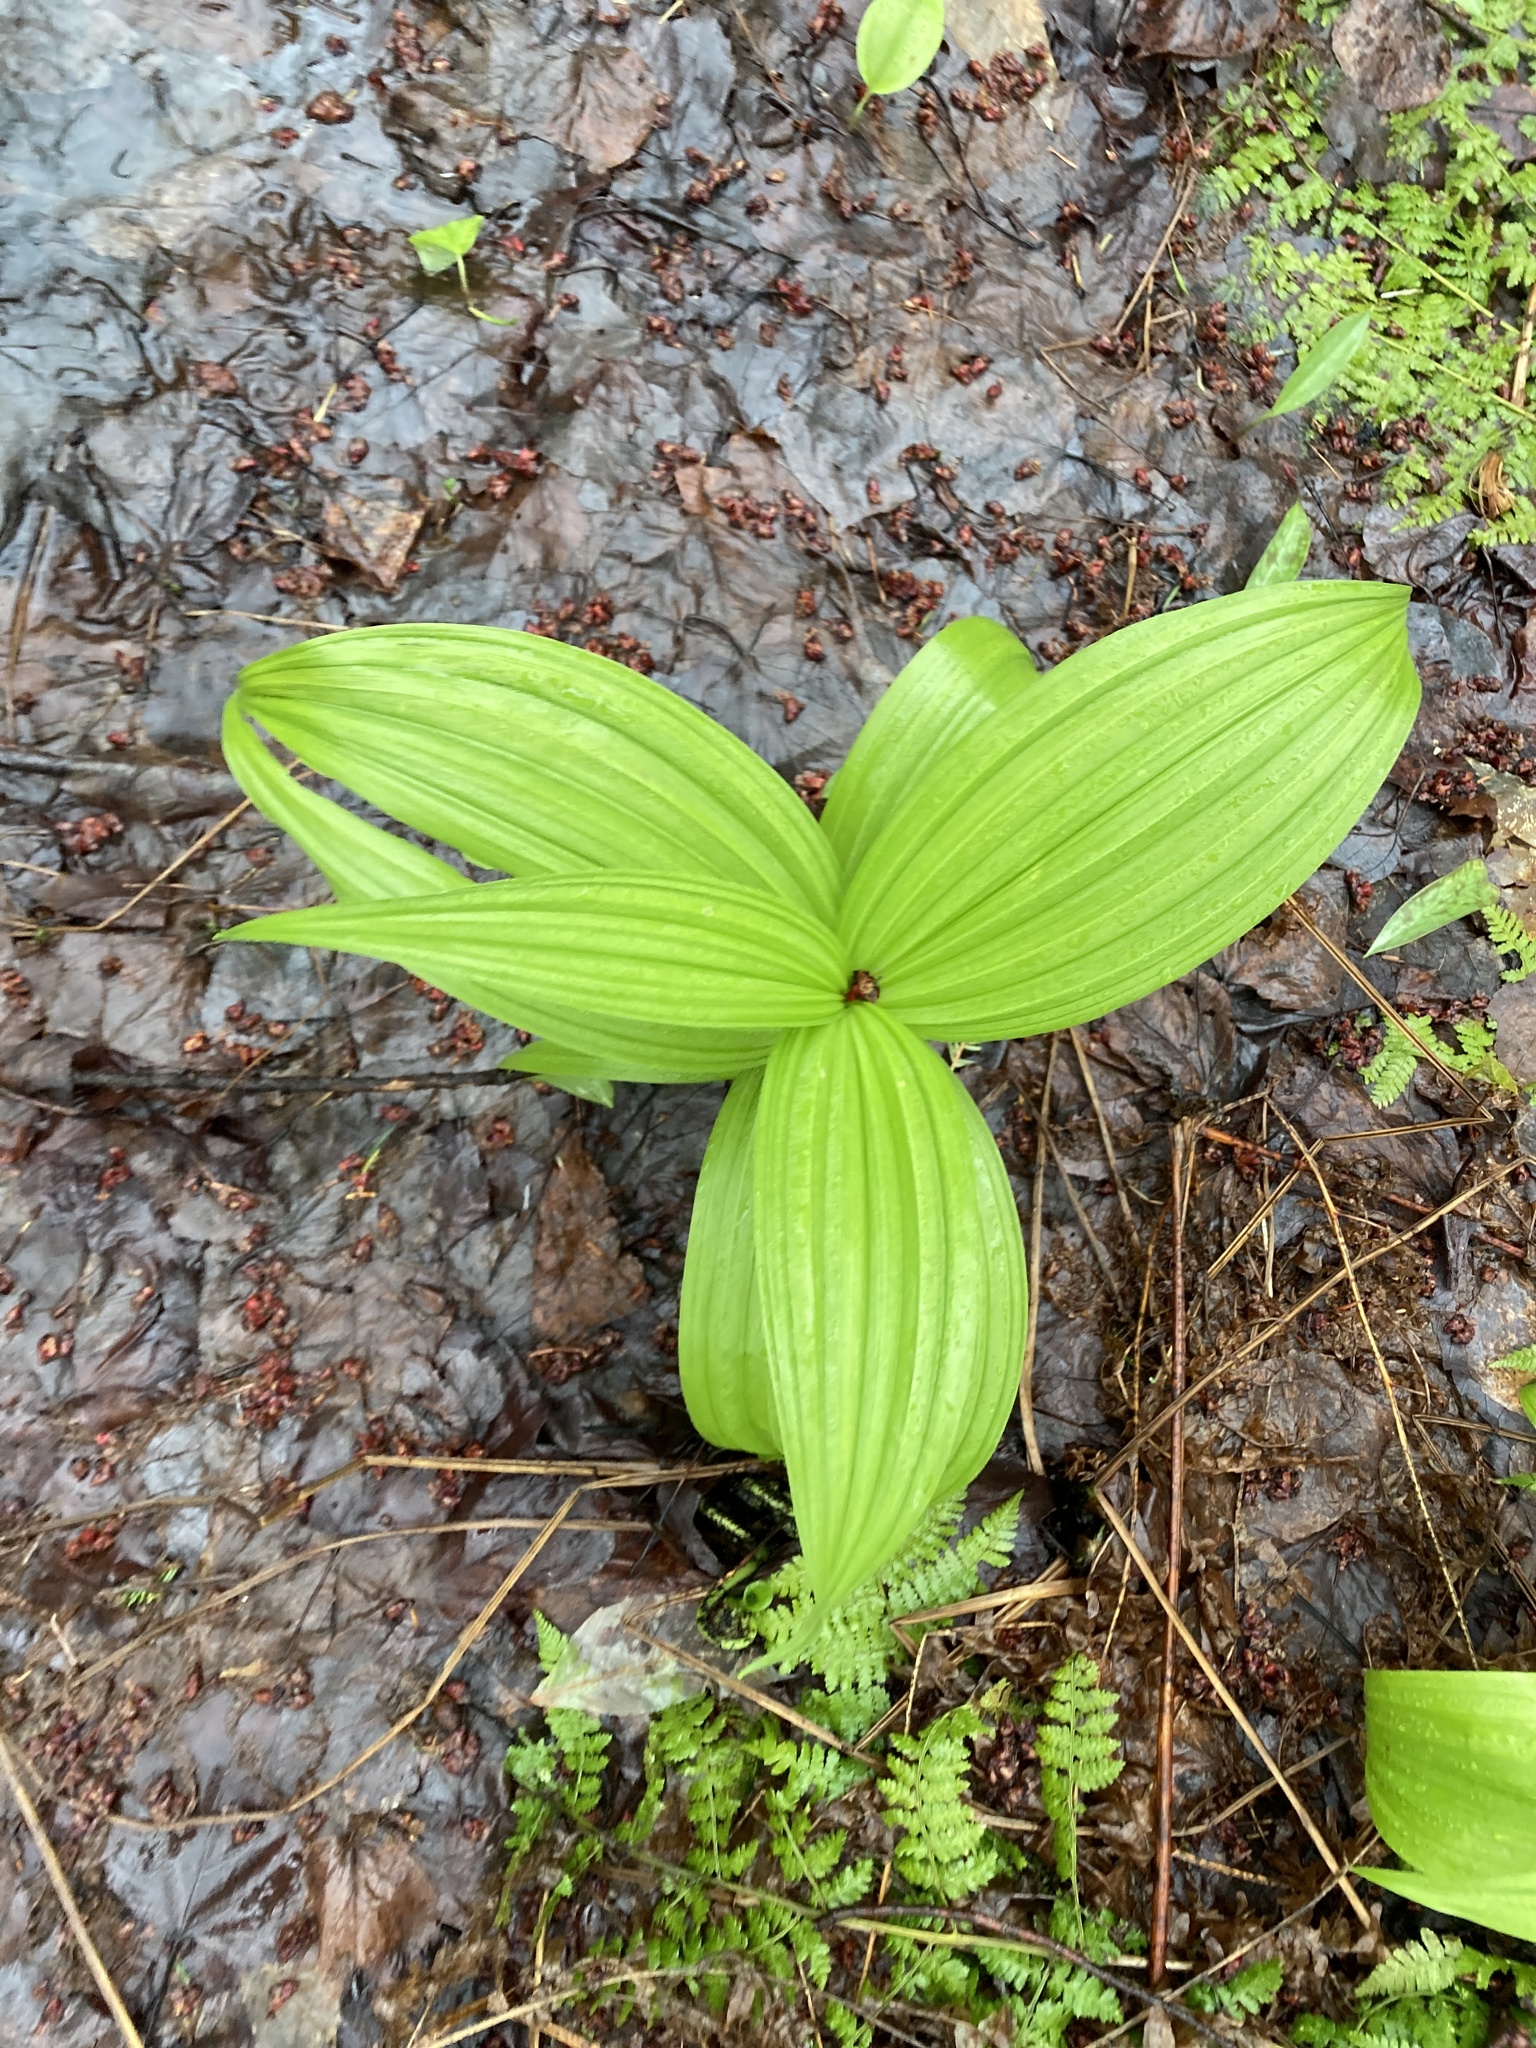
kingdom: Plantae
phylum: Tracheophyta
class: Liliopsida
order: Liliales
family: Melanthiaceae
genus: Veratrum
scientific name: Veratrum viride
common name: American false hellebore
